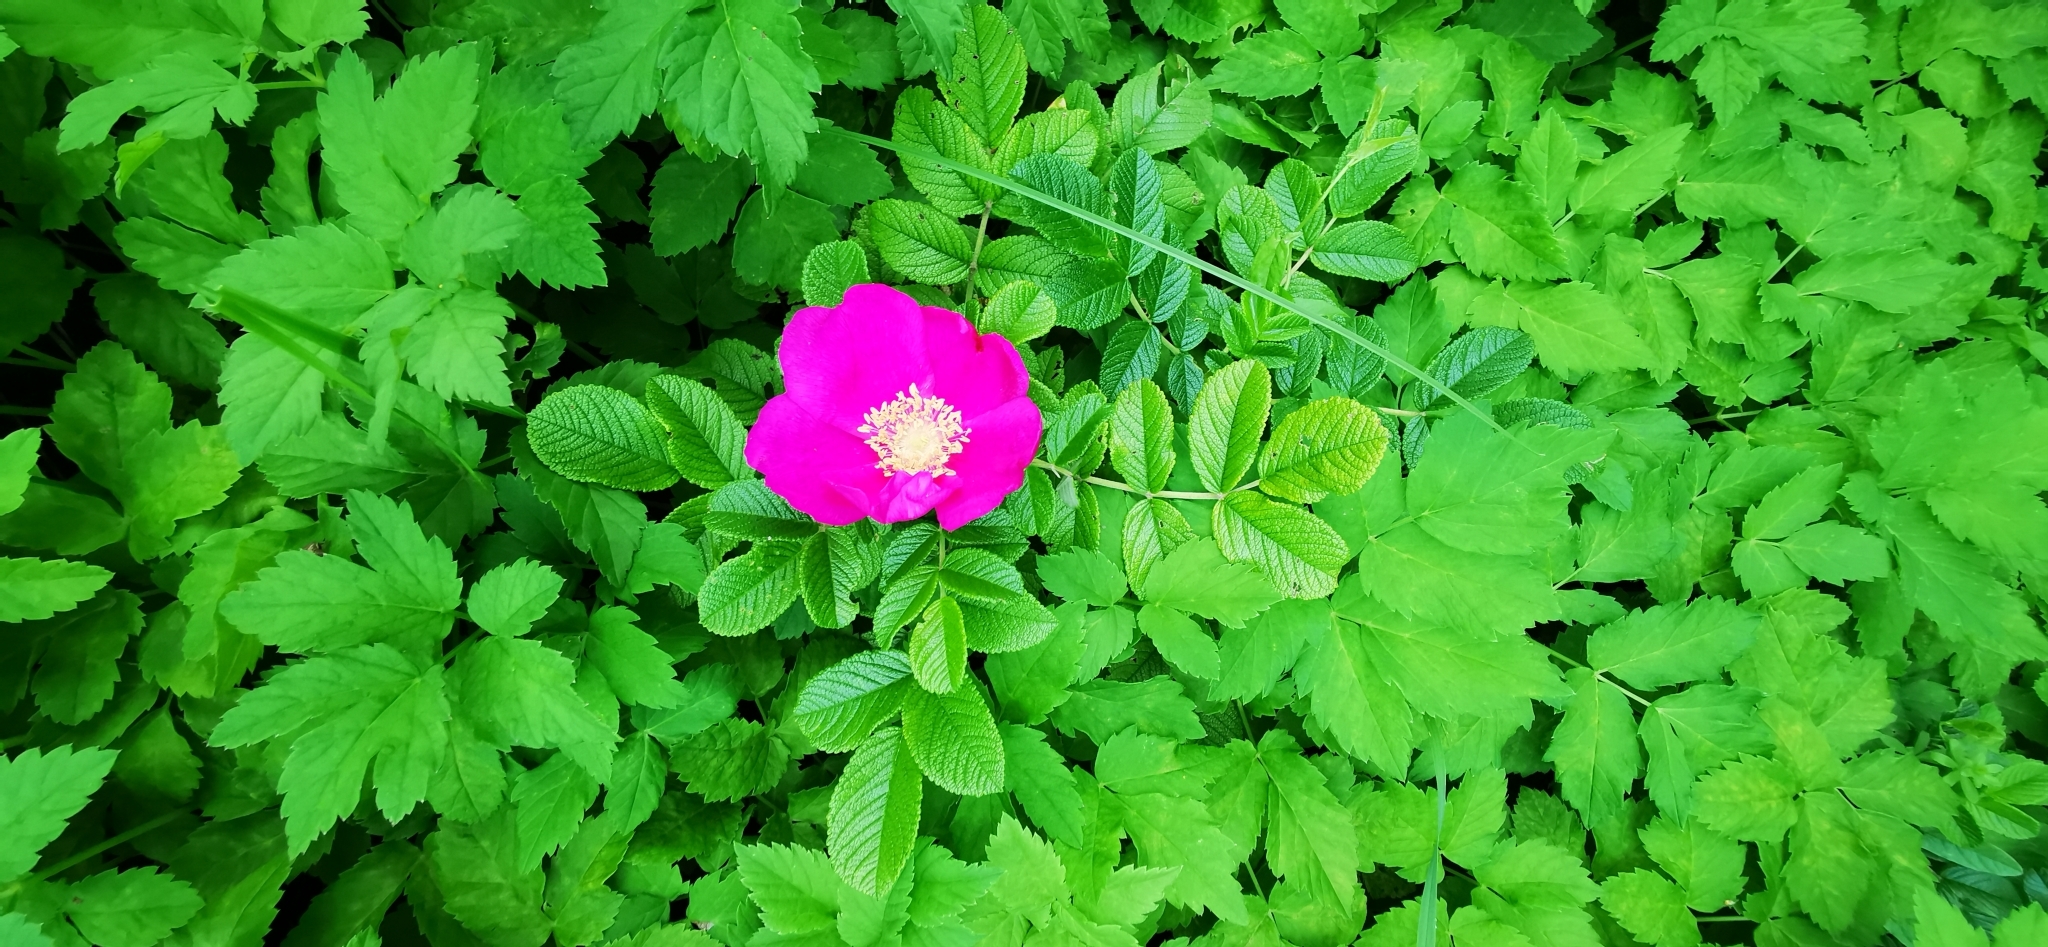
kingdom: Plantae
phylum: Tracheophyta
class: Magnoliopsida
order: Rosales
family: Rosaceae
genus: Rosa
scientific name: Rosa rugosa
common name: Japanese rose
